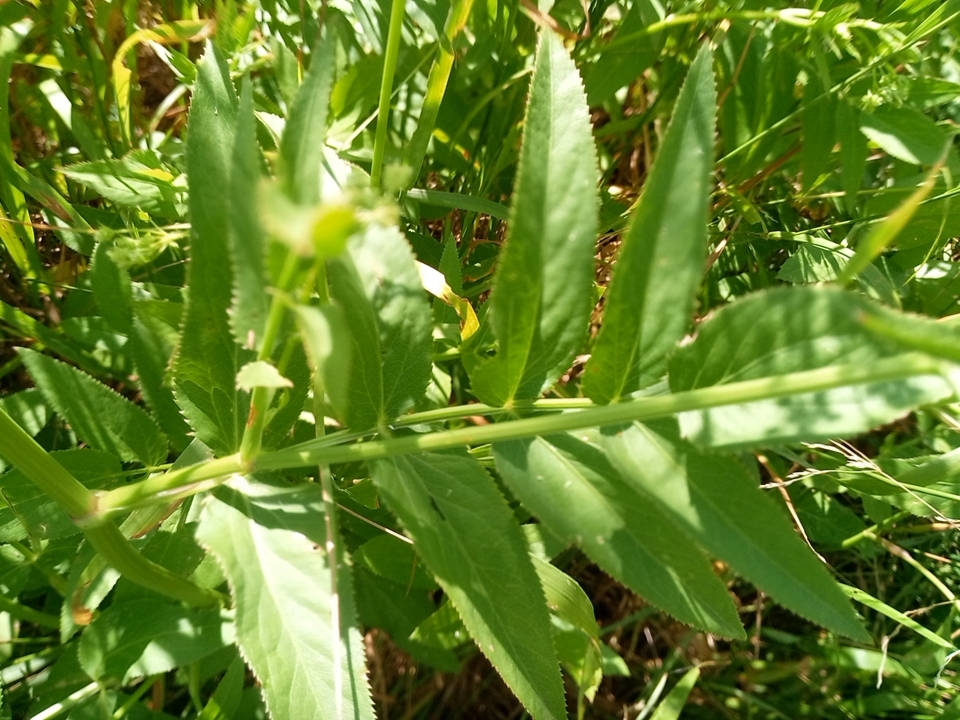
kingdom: Plantae
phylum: Tracheophyta
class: Magnoliopsida
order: Apiales
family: Apiaceae
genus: Sium
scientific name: Sium latifolium
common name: Greater water-parsnip
